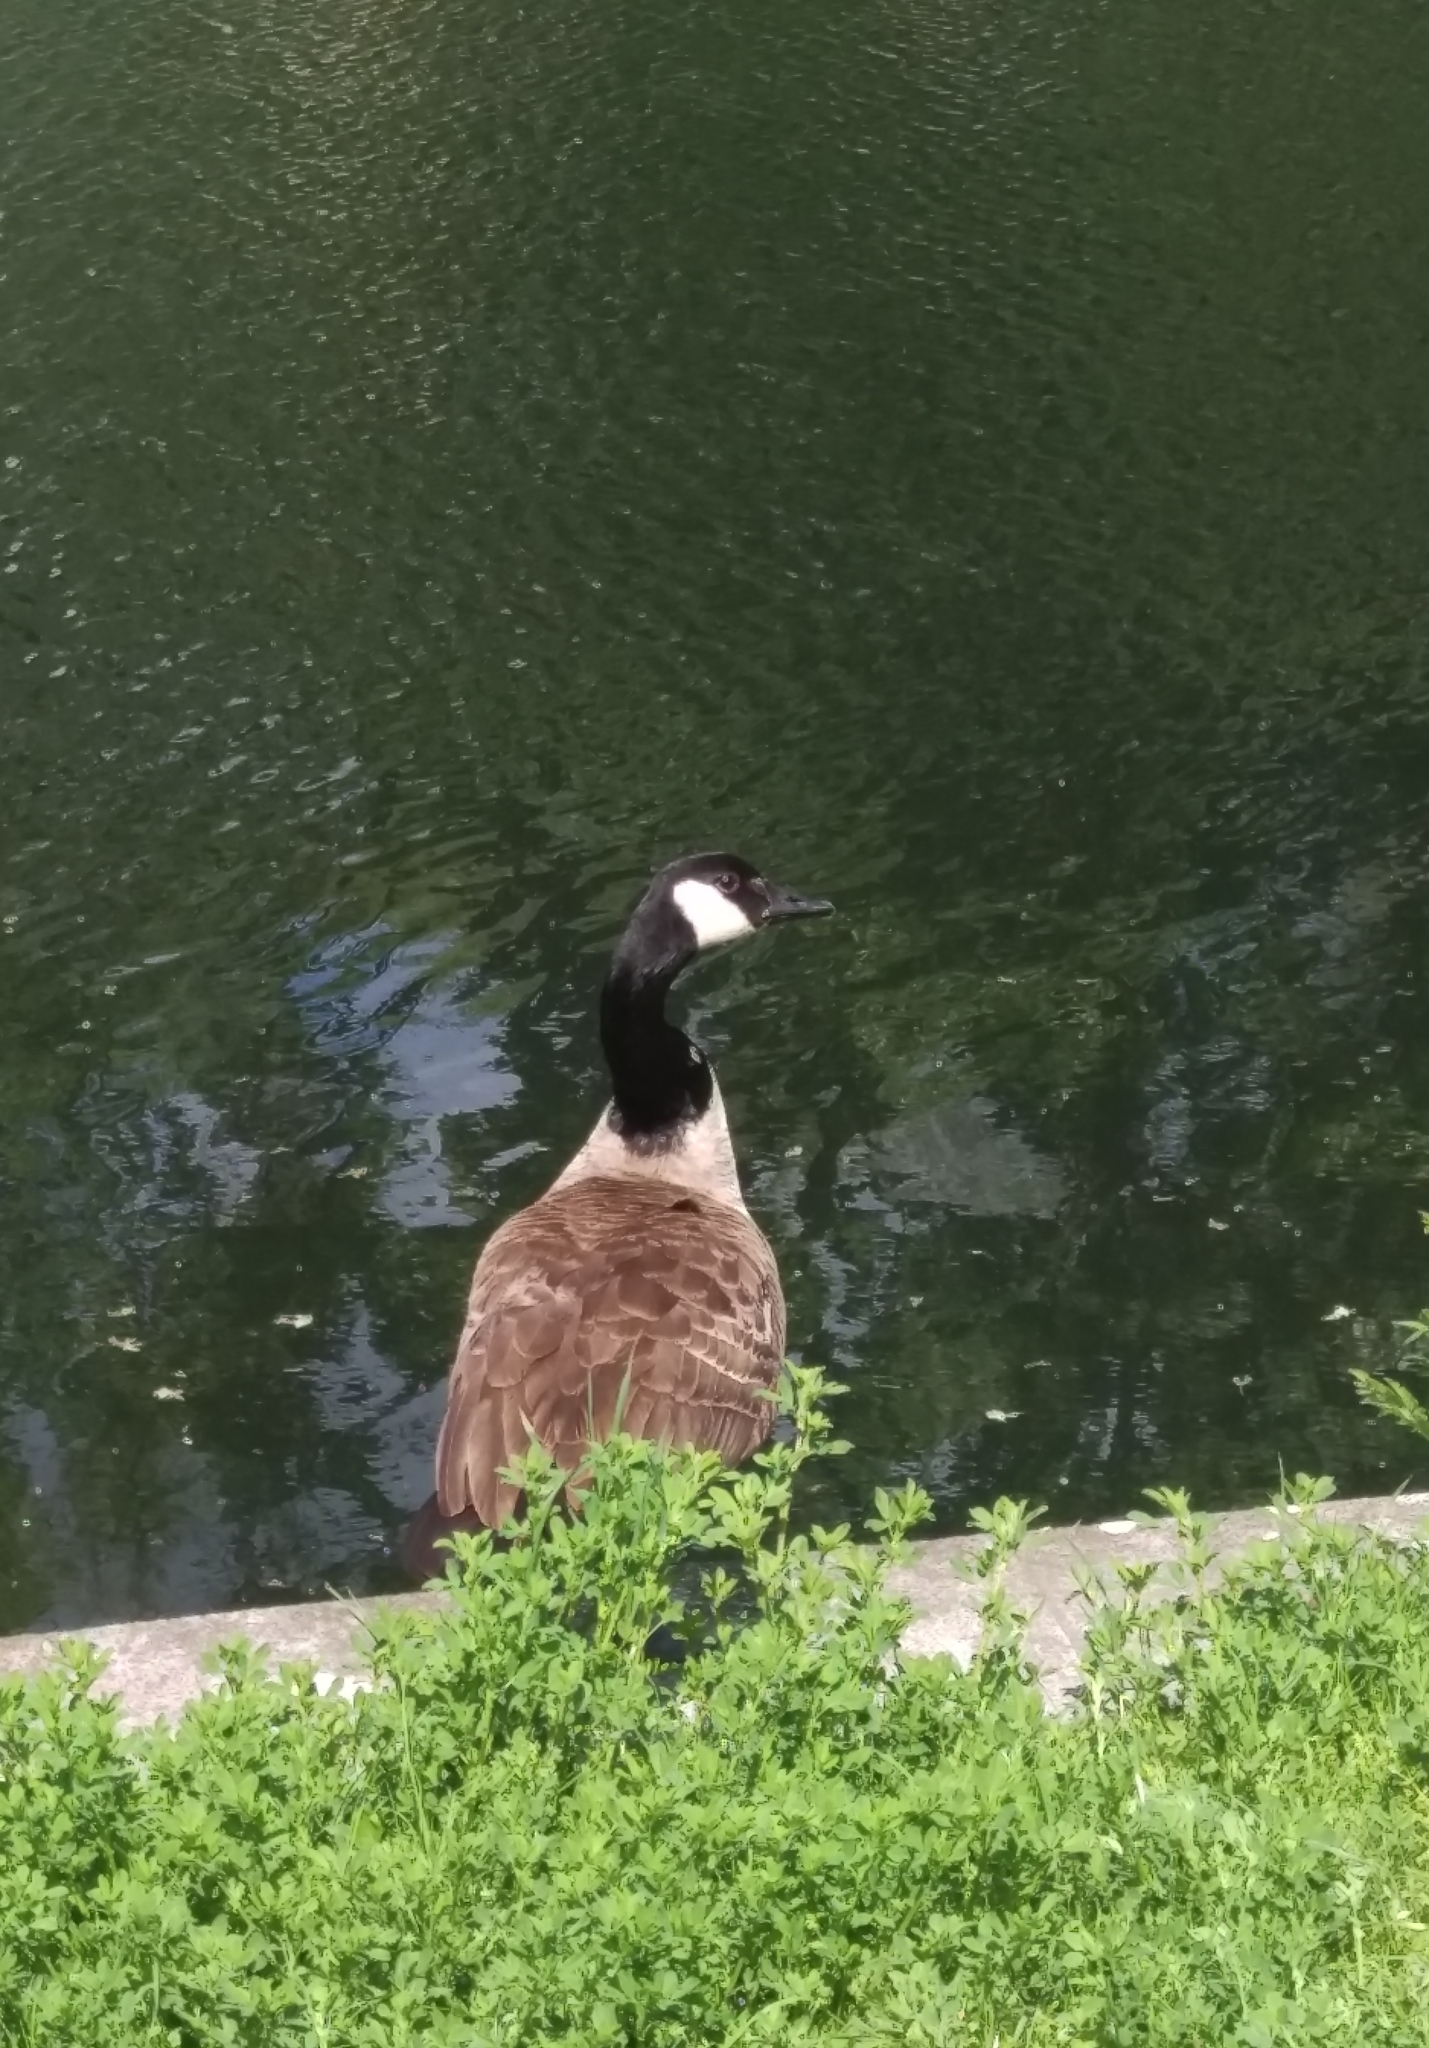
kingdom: Animalia
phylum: Chordata
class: Aves
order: Anseriformes
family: Anatidae
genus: Branta
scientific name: Branta canadensis
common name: Canada goose
